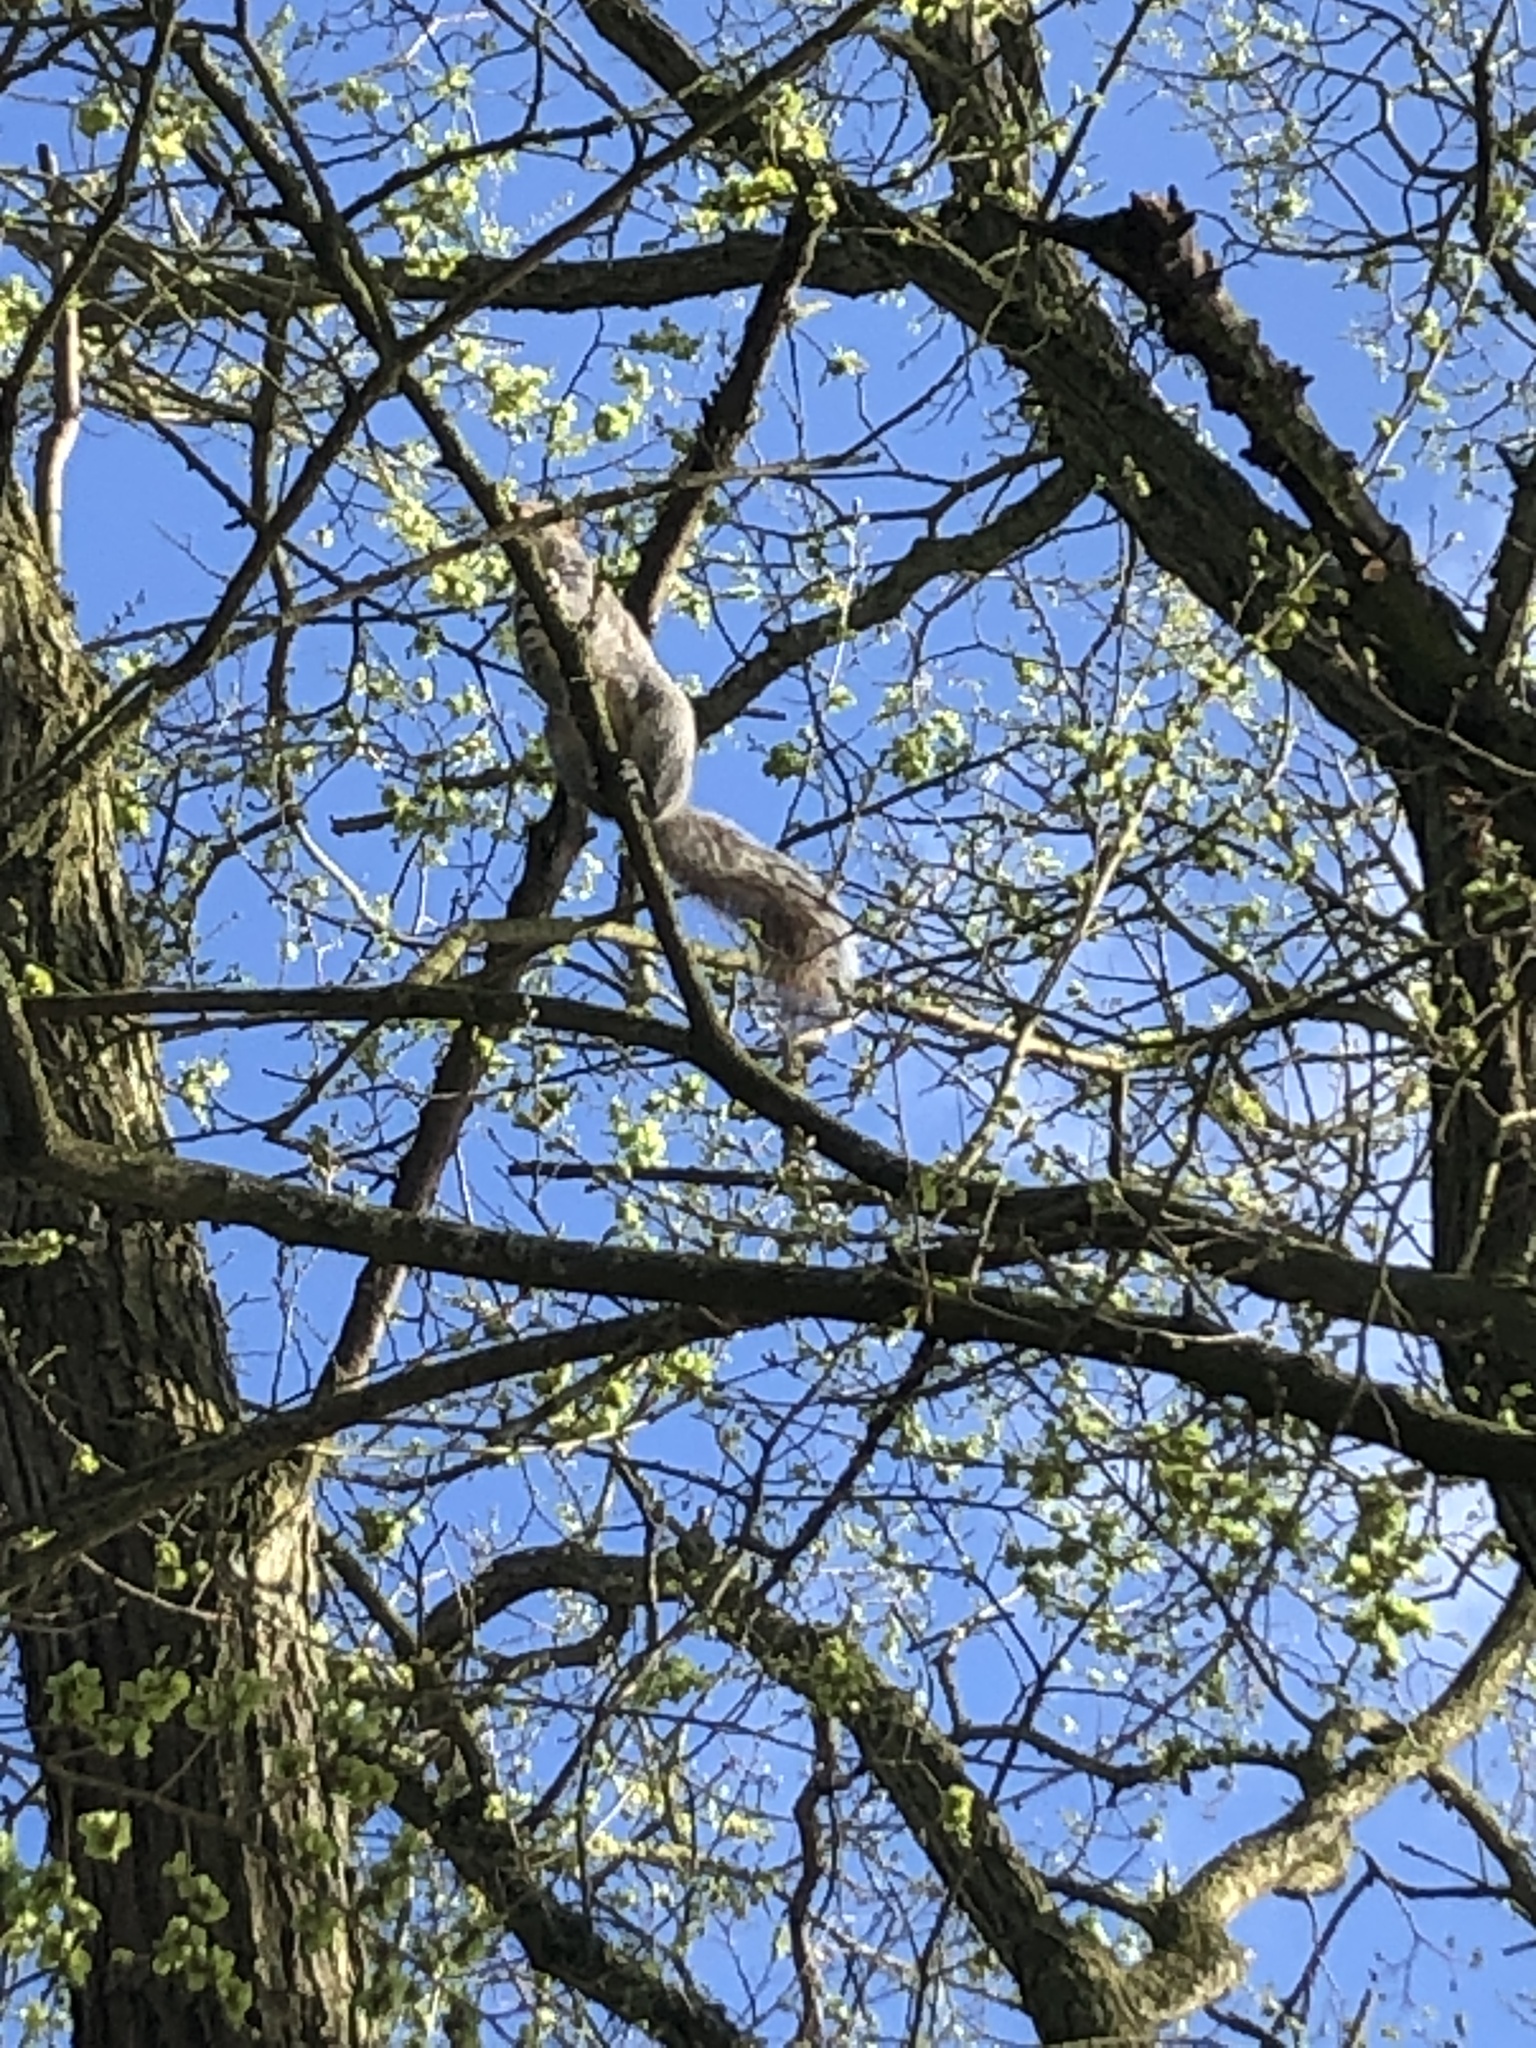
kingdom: Animalia
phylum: Chordata
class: Mammalia
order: Rodentia
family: Sciuridae
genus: Sciurus
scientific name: Sciurus carolinensis
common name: Eastern gray squirrel
